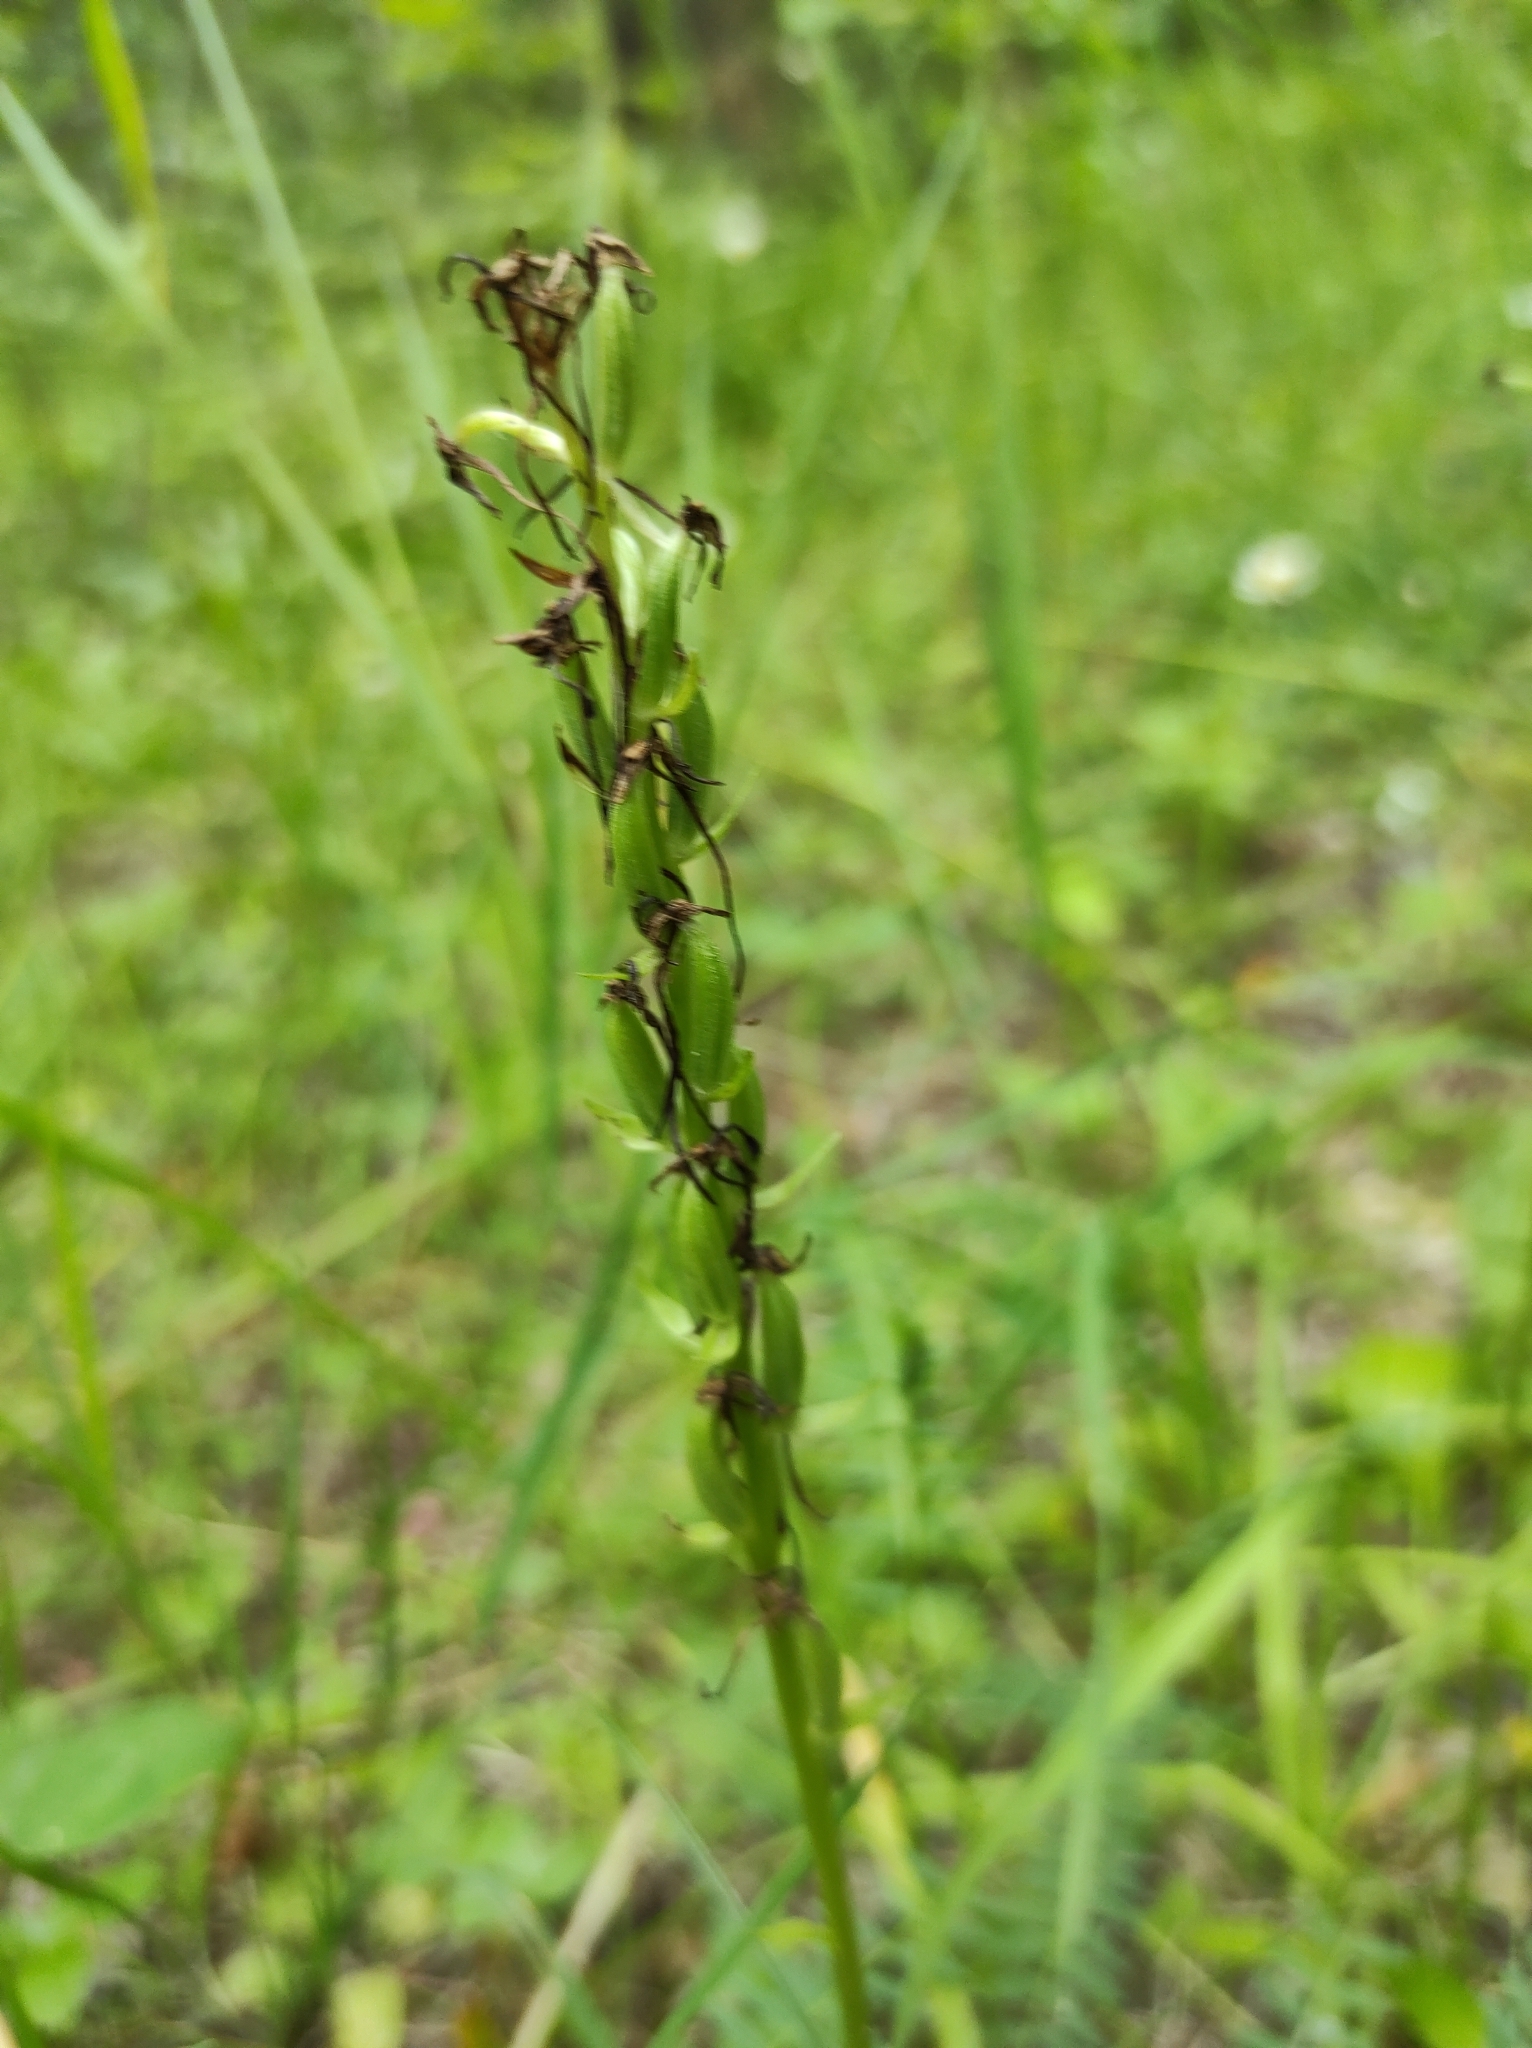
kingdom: Plantae
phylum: Tracheophyta
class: Liliopsida
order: Asparagales
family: Orchidaceae
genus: Platanthera
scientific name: Platanthera bifolia
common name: Lesser butterfly-orchid
